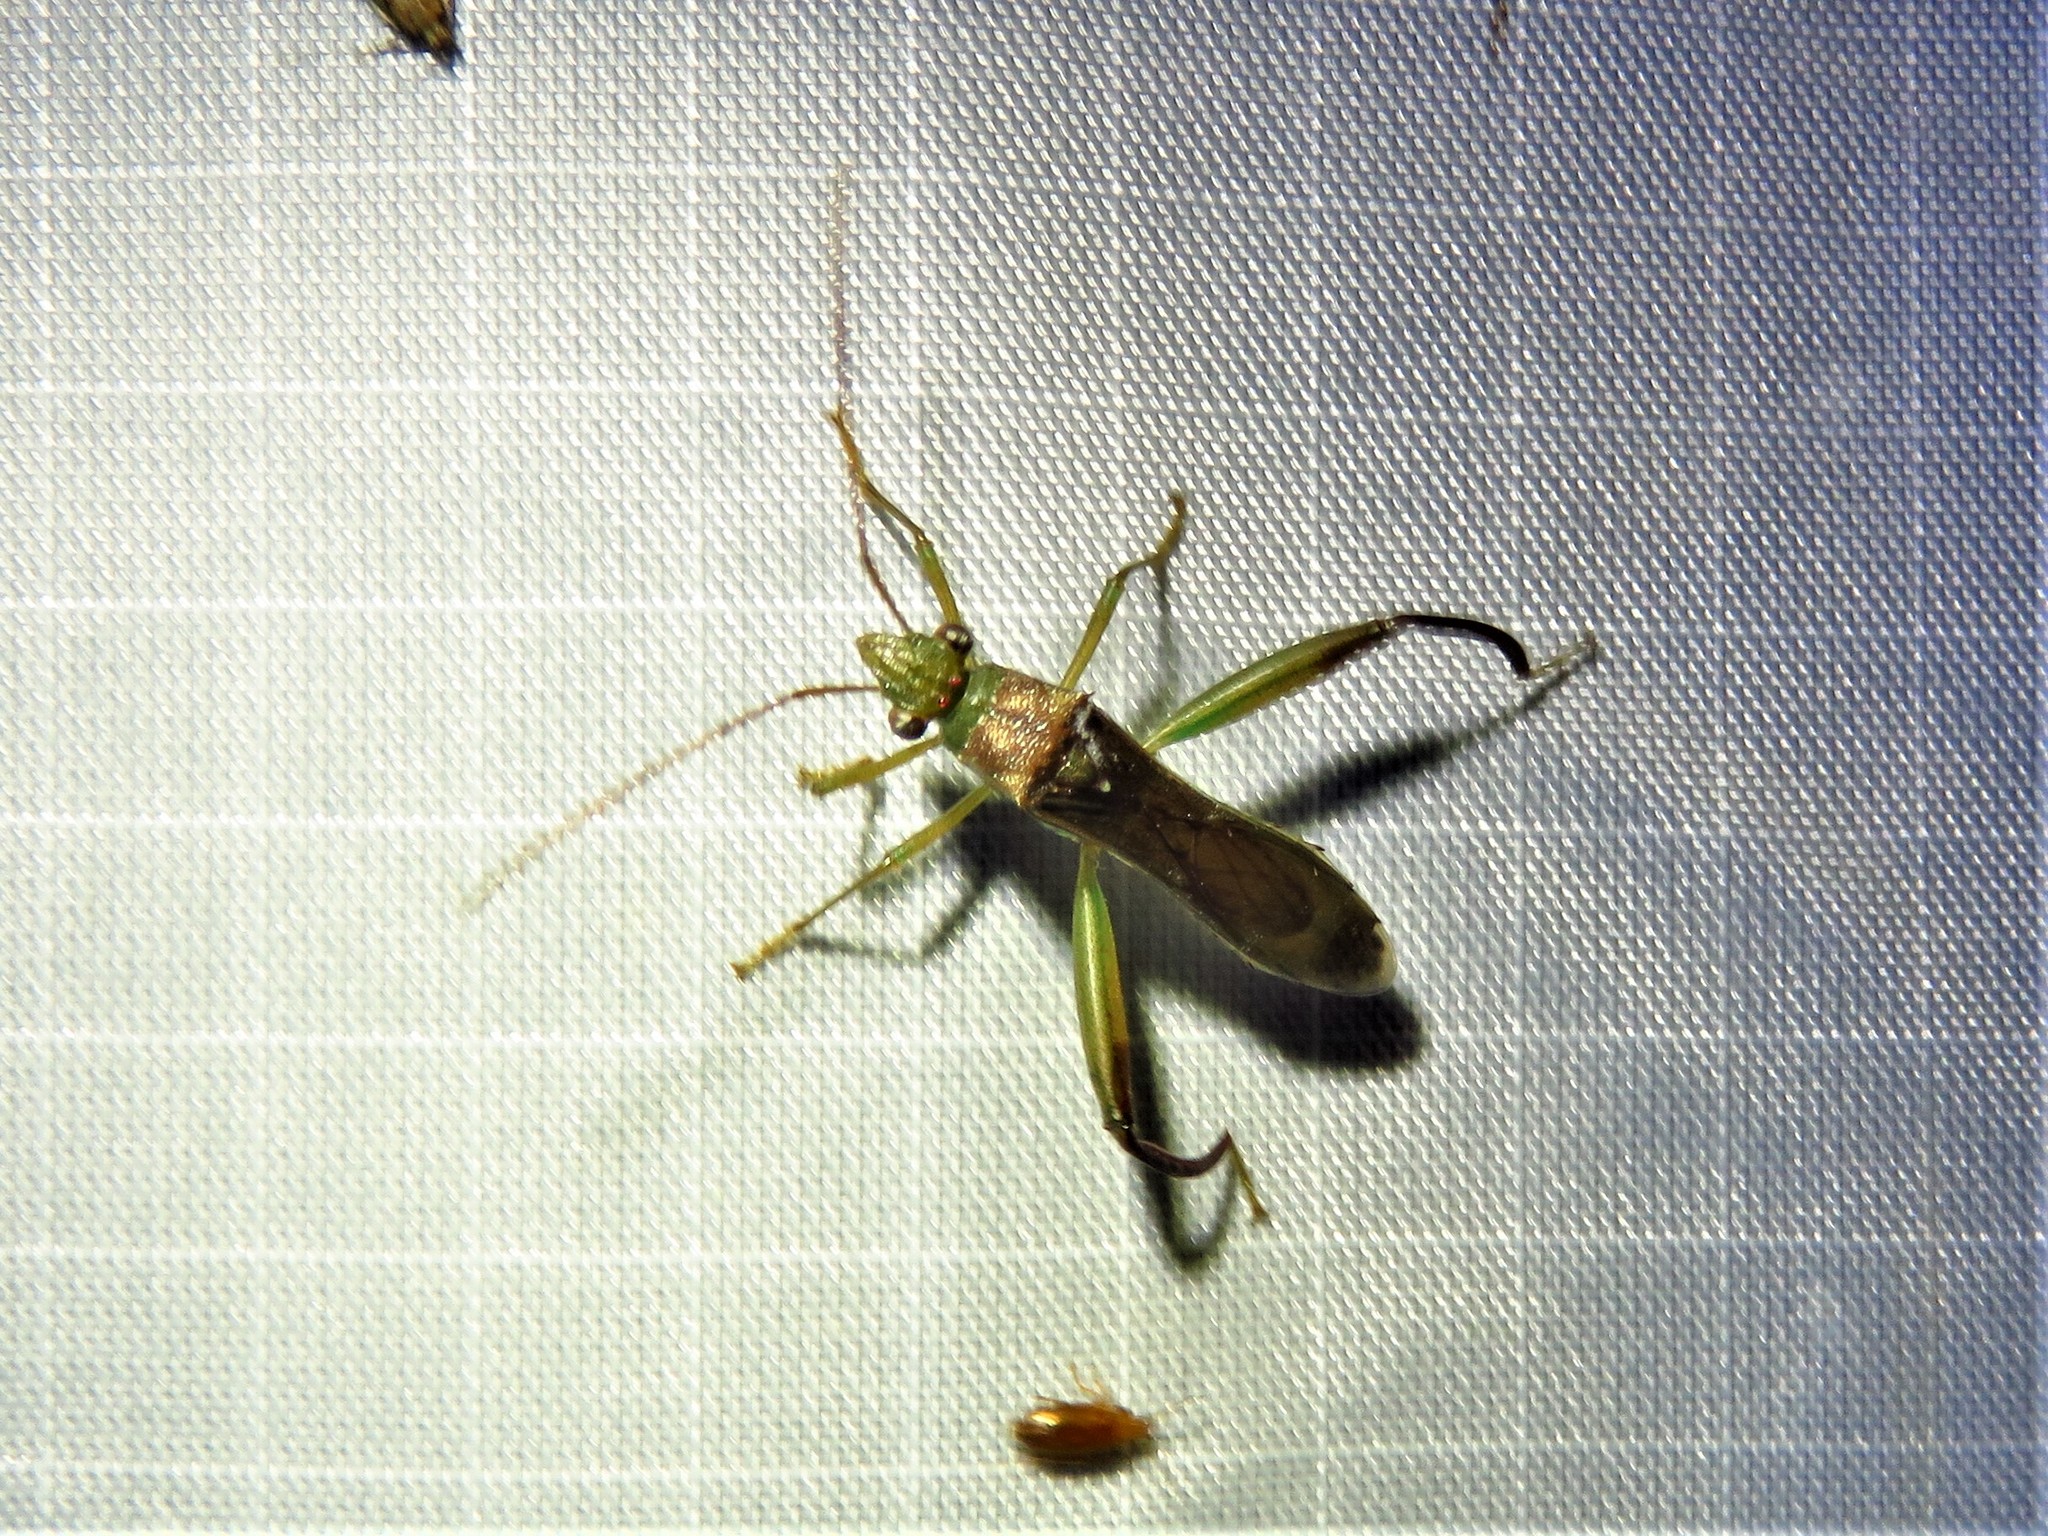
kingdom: Animalia
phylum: Arthropoda
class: Insecta
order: Hemiptera
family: Alydidae
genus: Hyalymenus
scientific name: Hyalymenus tarsatus
